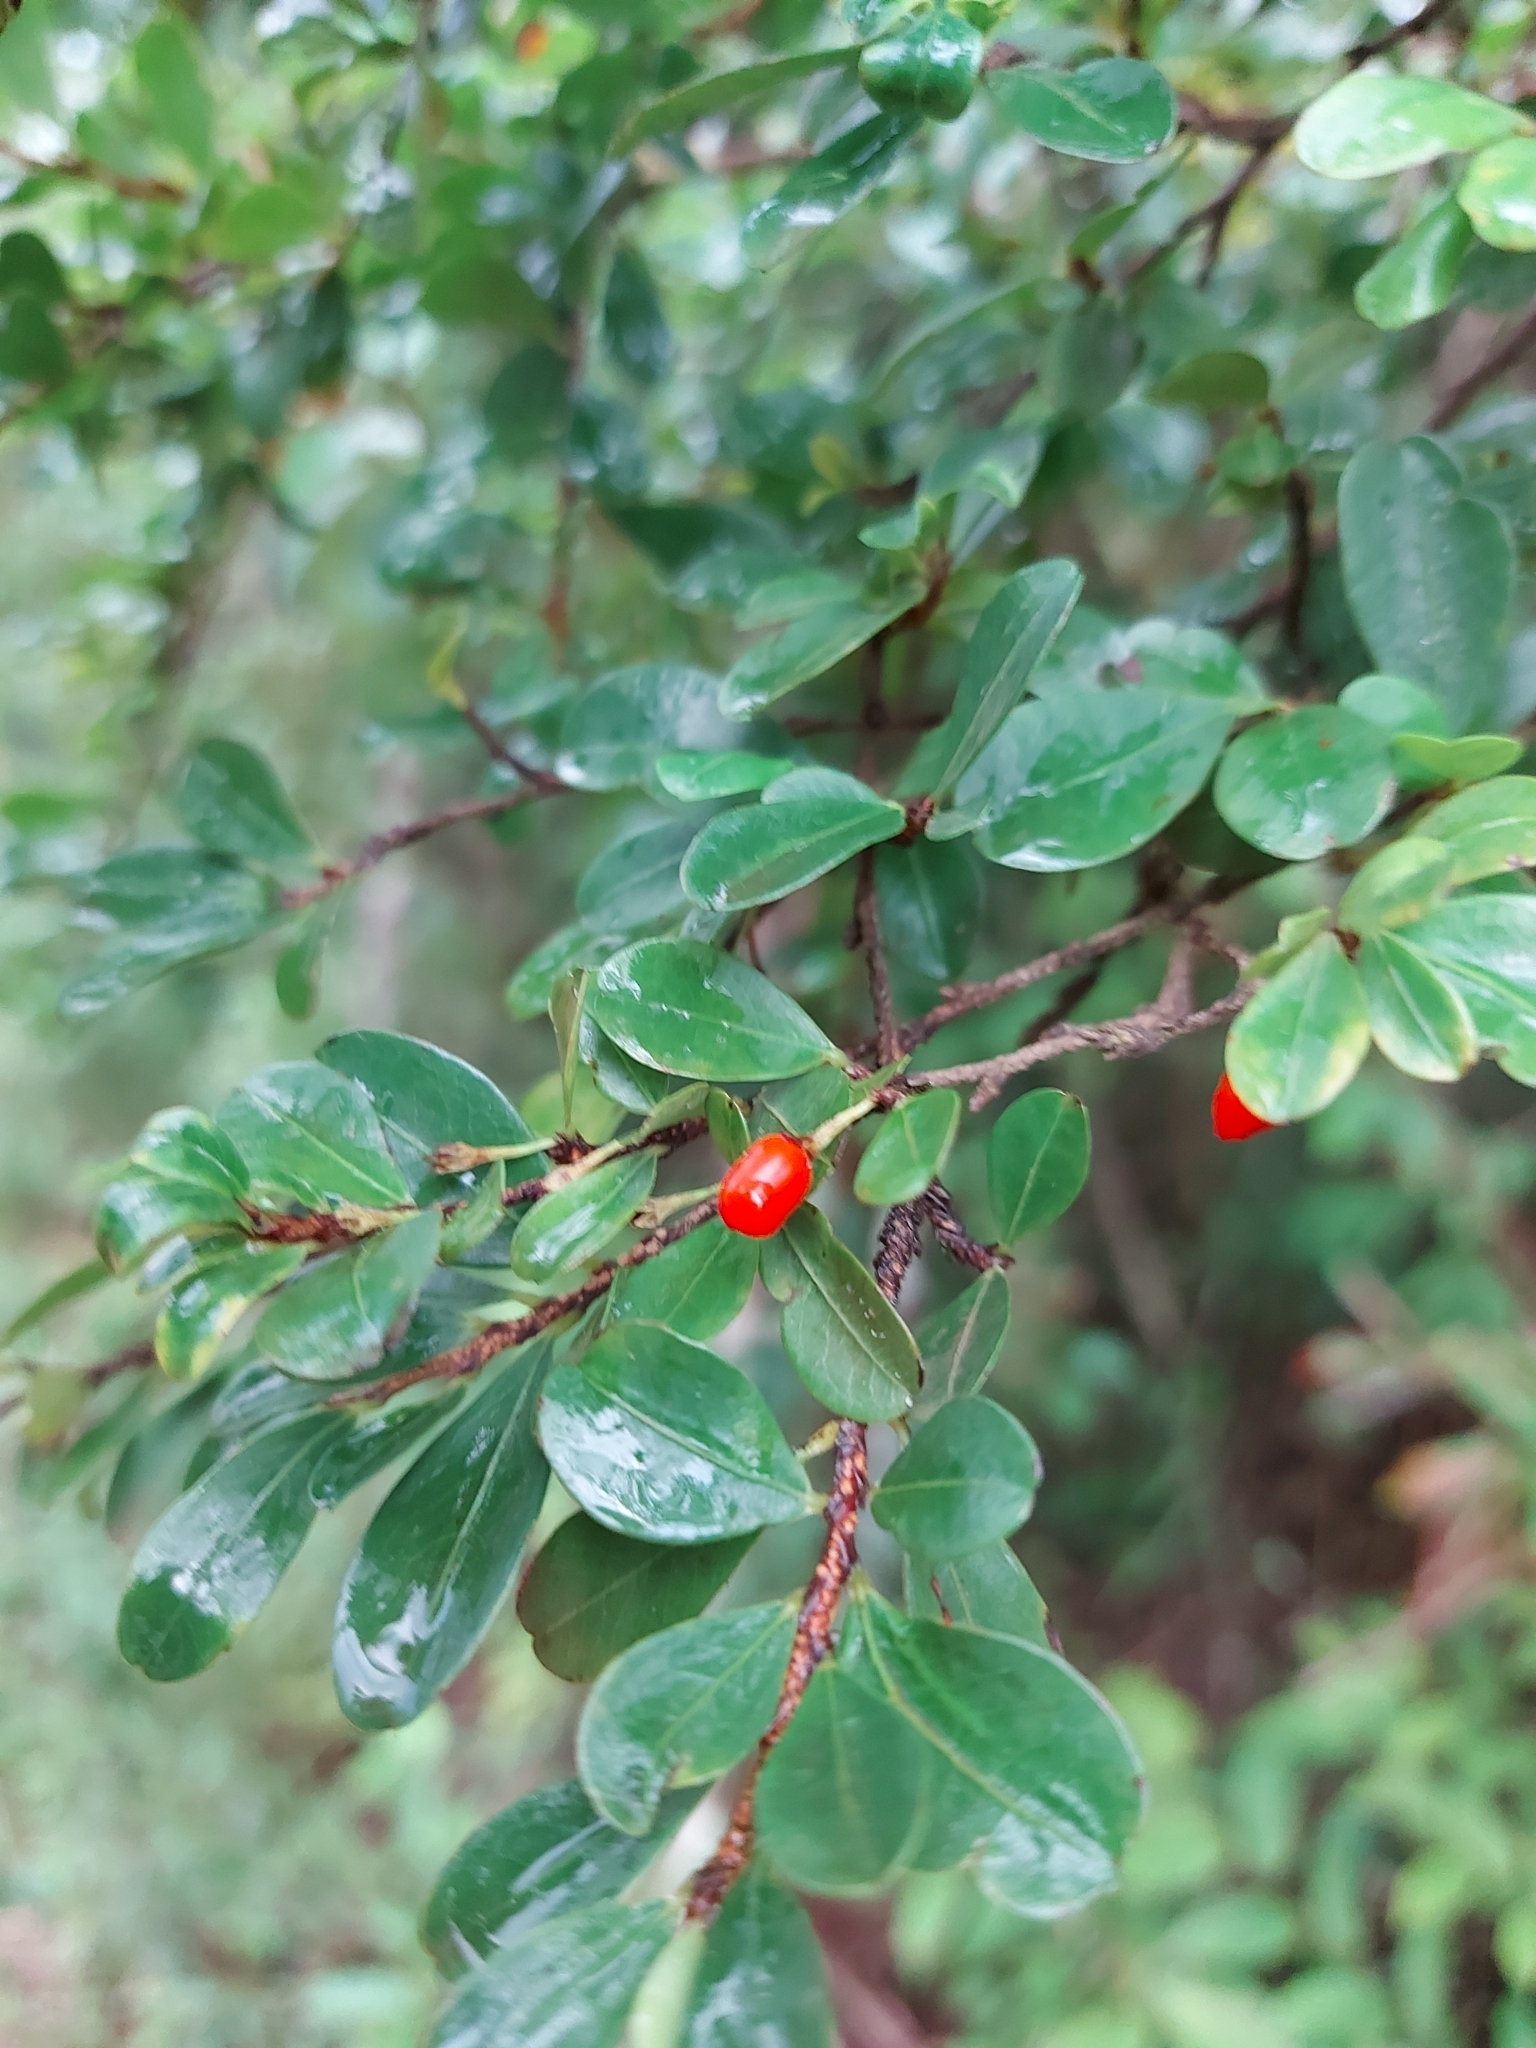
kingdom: Plantae
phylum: Tracheophyta
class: Magnoliopsida
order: Malpighiales
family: Erythroxylaceae
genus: Erythroxylum
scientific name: Erythroxylum cuneifolium
